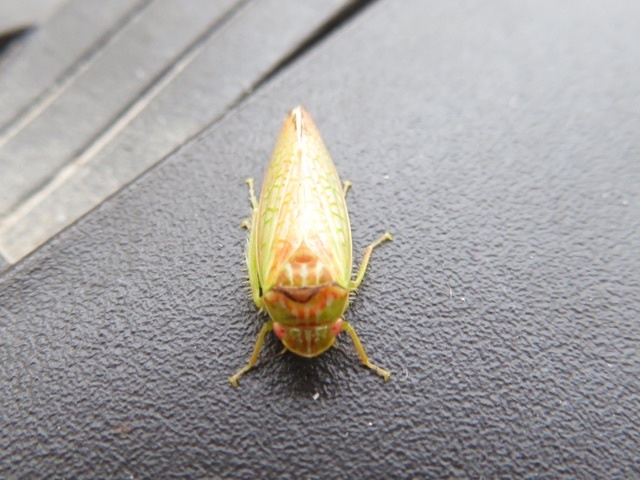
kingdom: Animalia
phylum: Arthropoda
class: Insecta
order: Hemiptera
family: Cicadellidae
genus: Gyponana
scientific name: Gyponana octolineata
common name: Eight-lined leafhopper
